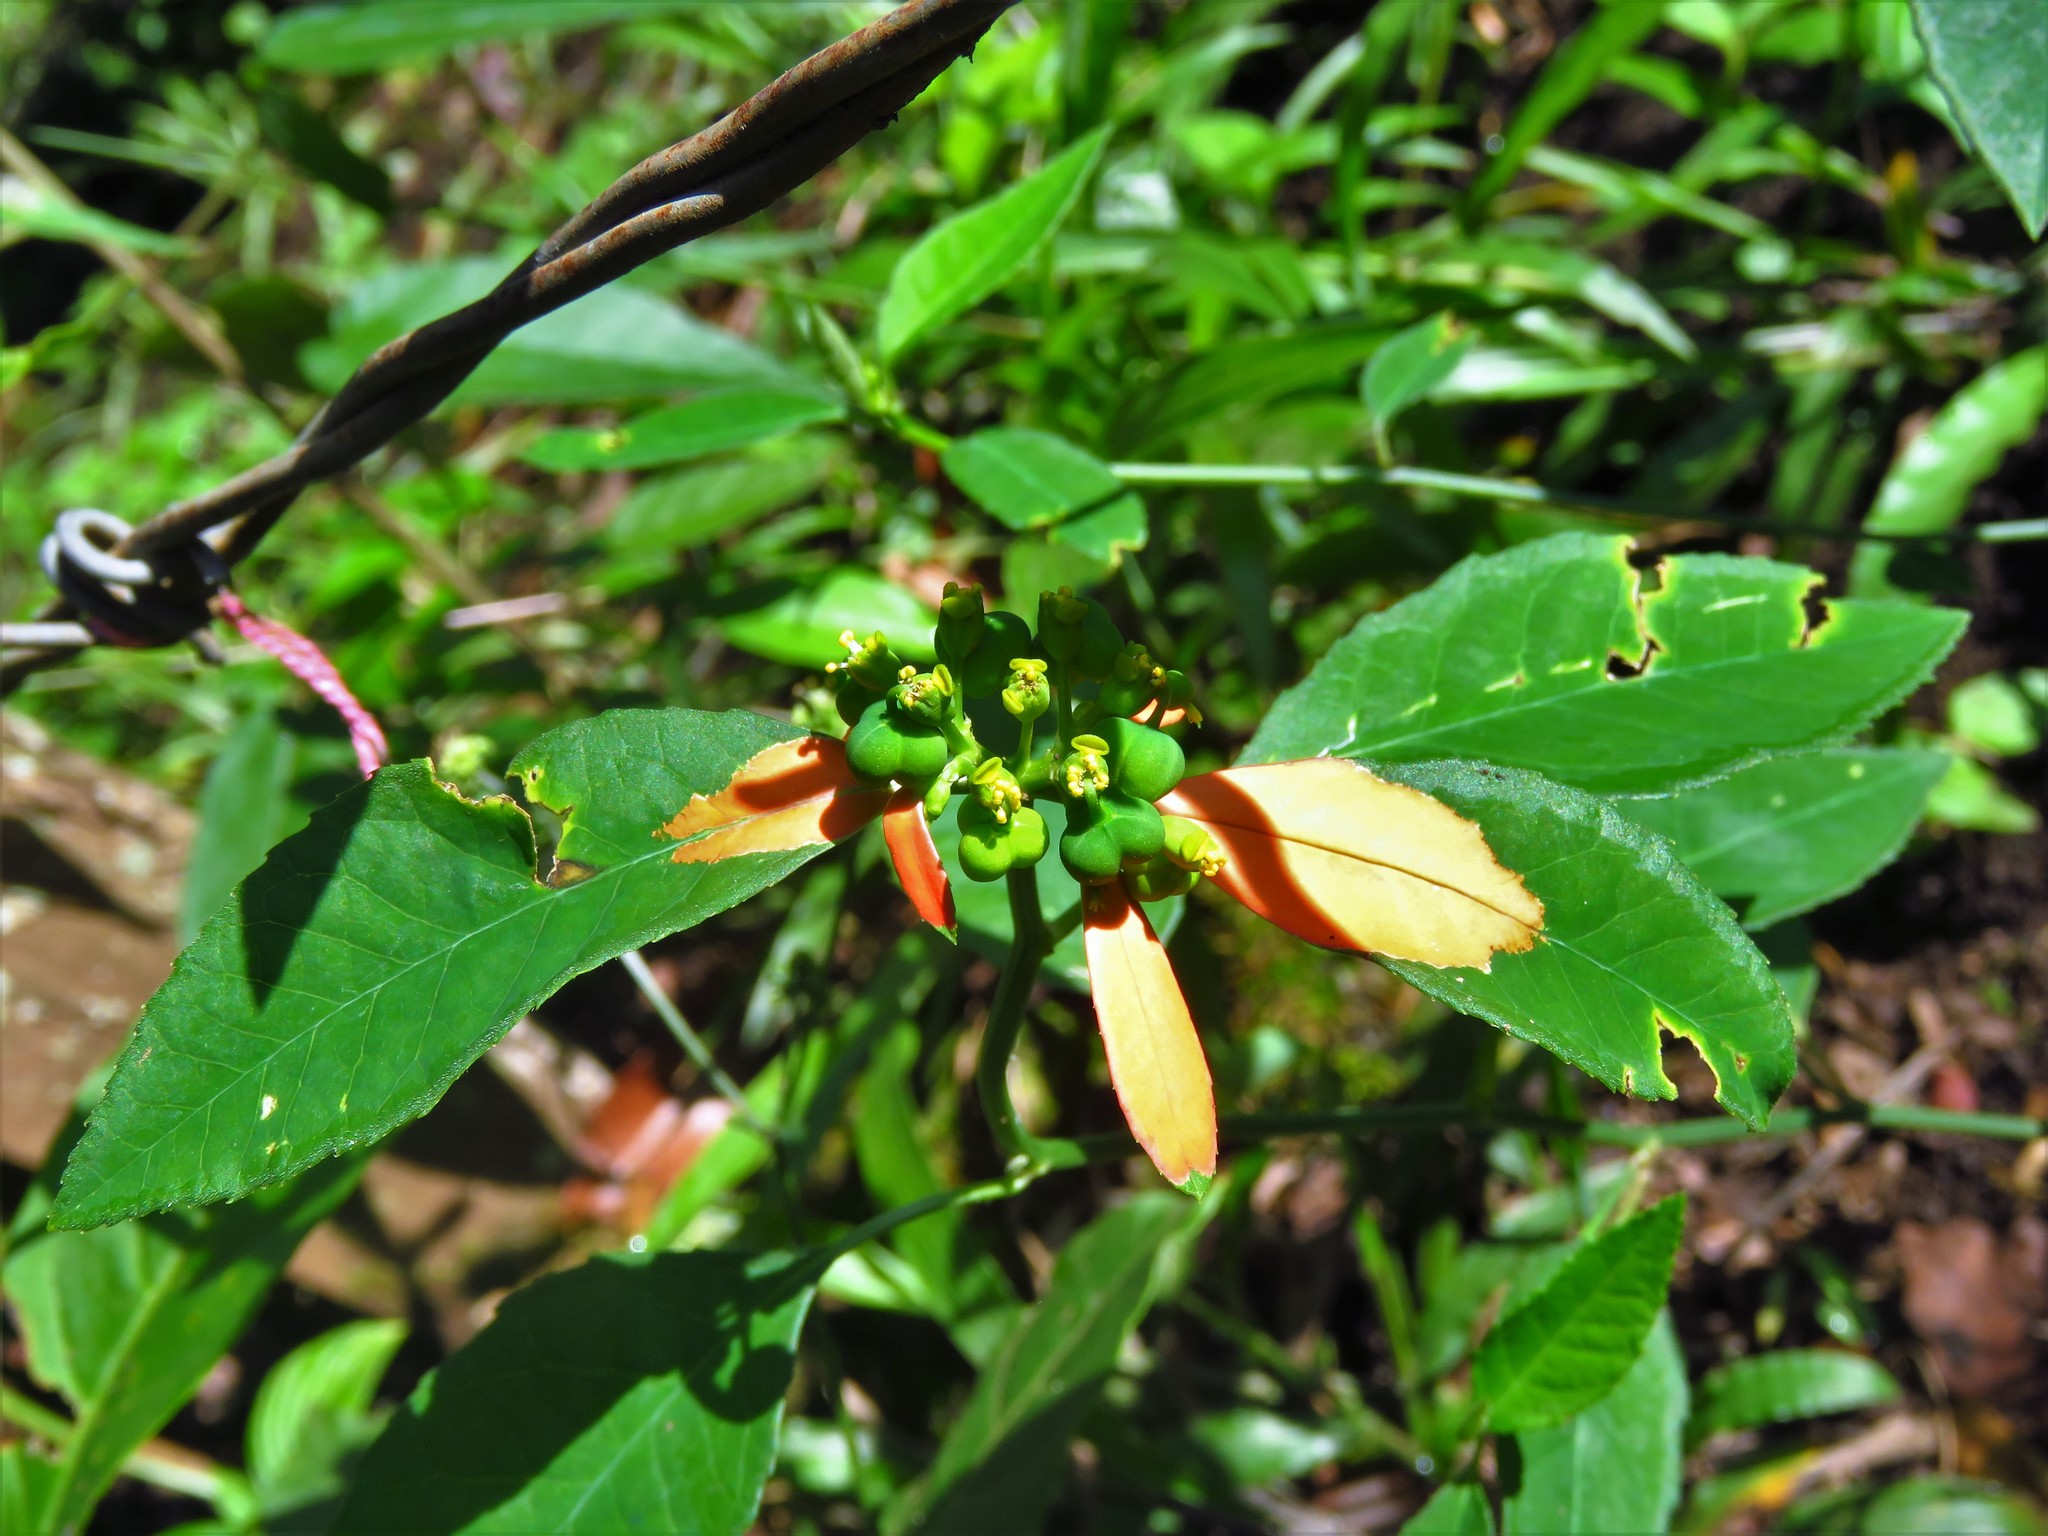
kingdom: Plantae
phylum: Tracheophyta
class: Magnoliopsida
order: Malpighiales
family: Euphorbiaceae
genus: Euphorbia
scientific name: Euphorbia heterophylla
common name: Mexican fireplant
